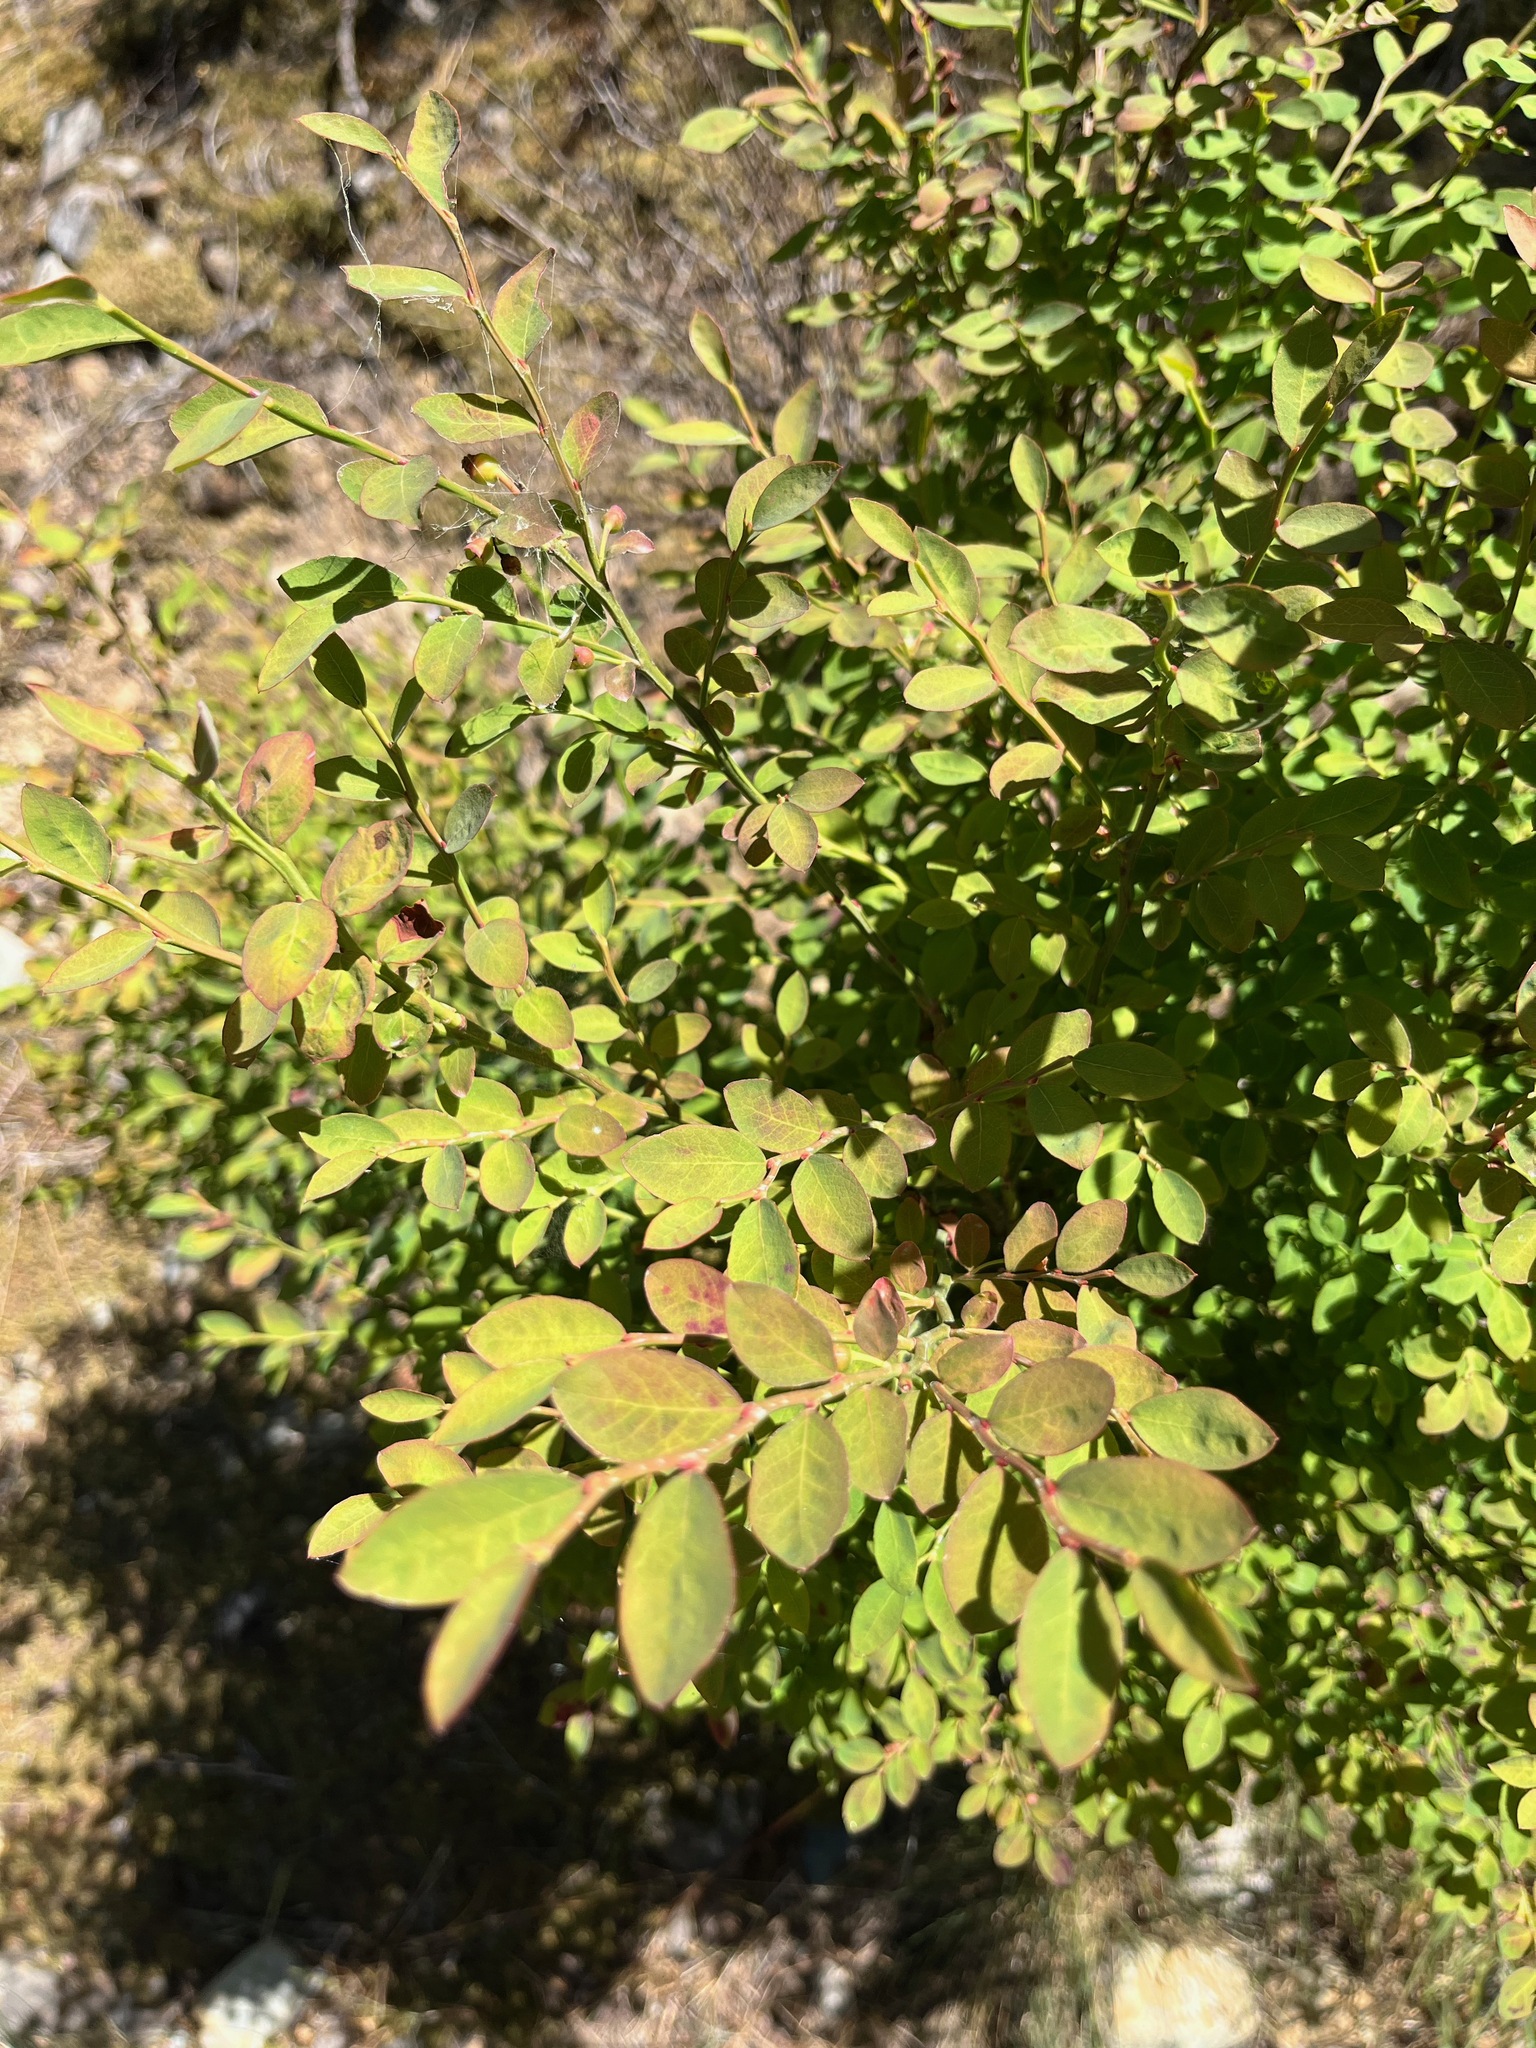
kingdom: Plantae
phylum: Tracheophyta
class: Magnoliopsida
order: Ericales
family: Ericaceae
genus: Vaccinium
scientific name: Vaccinium parvifolium
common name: Red-huckleberry
